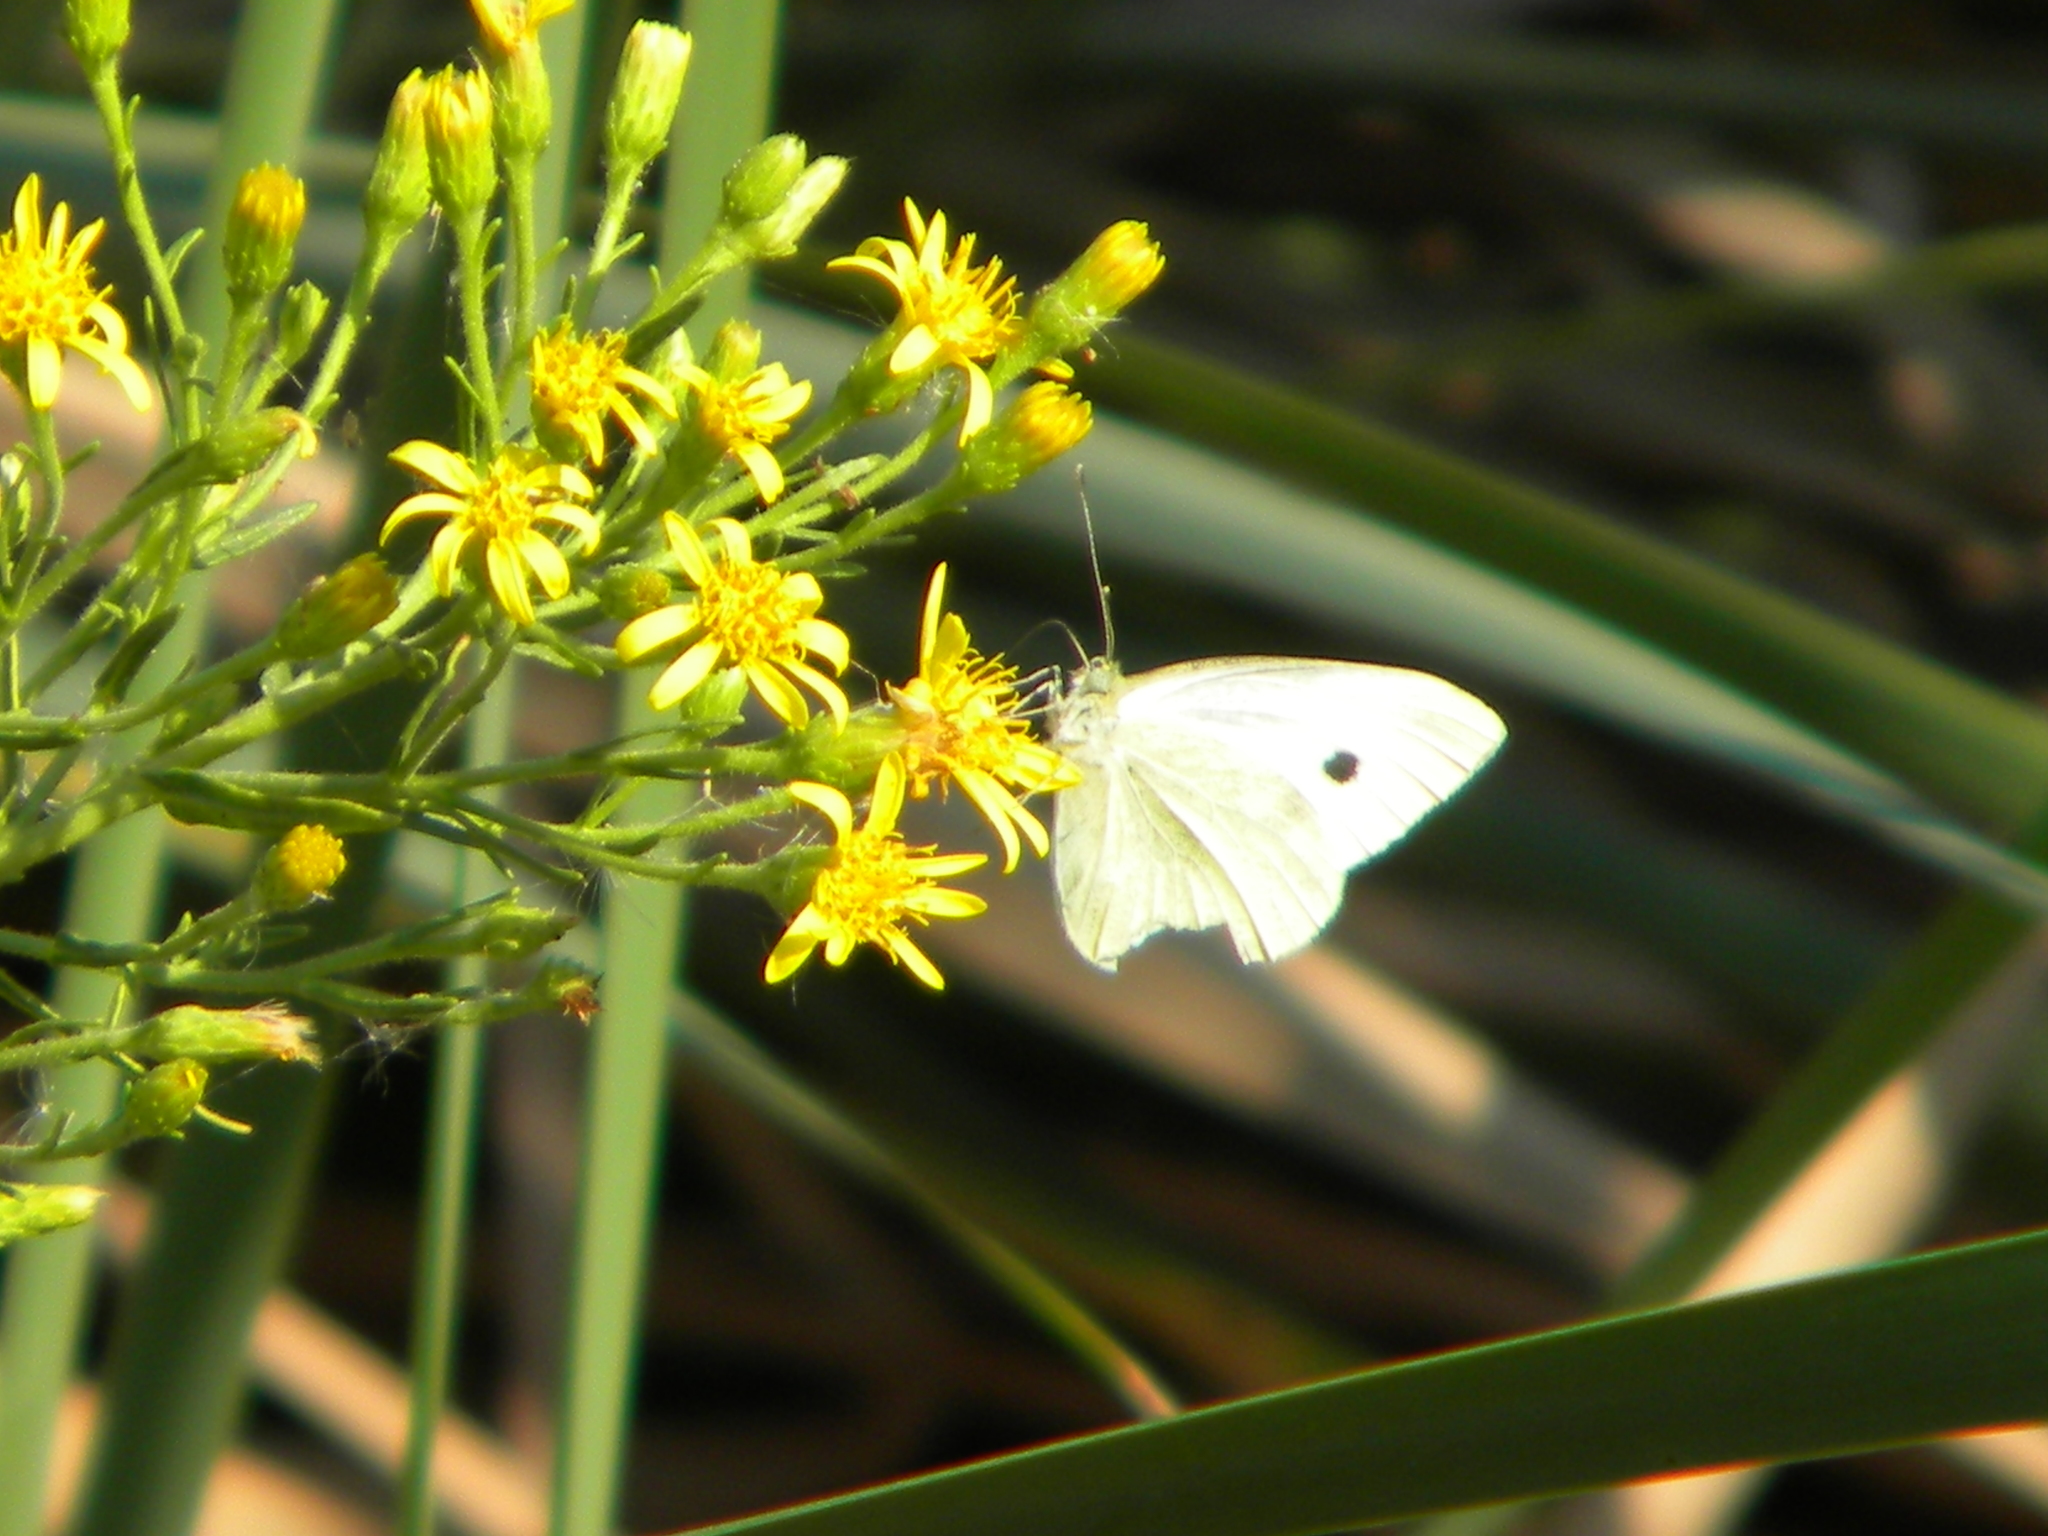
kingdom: Animalia
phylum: Arthropoda
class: Insecta
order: Lepidoptera
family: Pieridae
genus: Pieris
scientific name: Pieris rapae
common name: Small white
